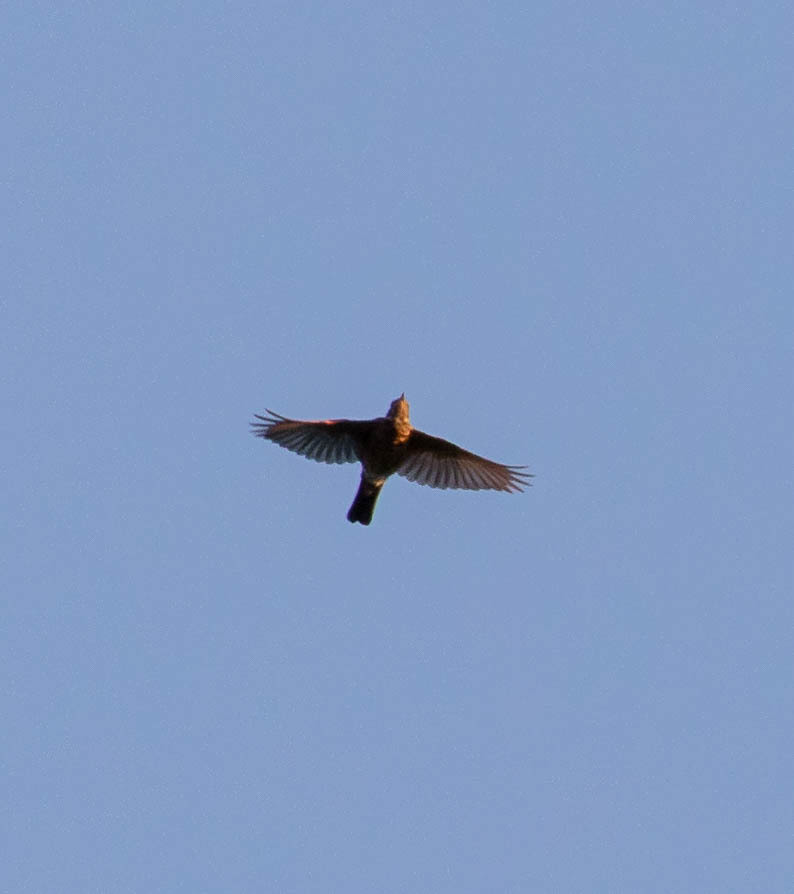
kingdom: Animalia
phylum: Chordata
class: Aves
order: Passeriformes
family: Turdidae
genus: Turdus
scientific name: Turdus migratorius
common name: American robin
